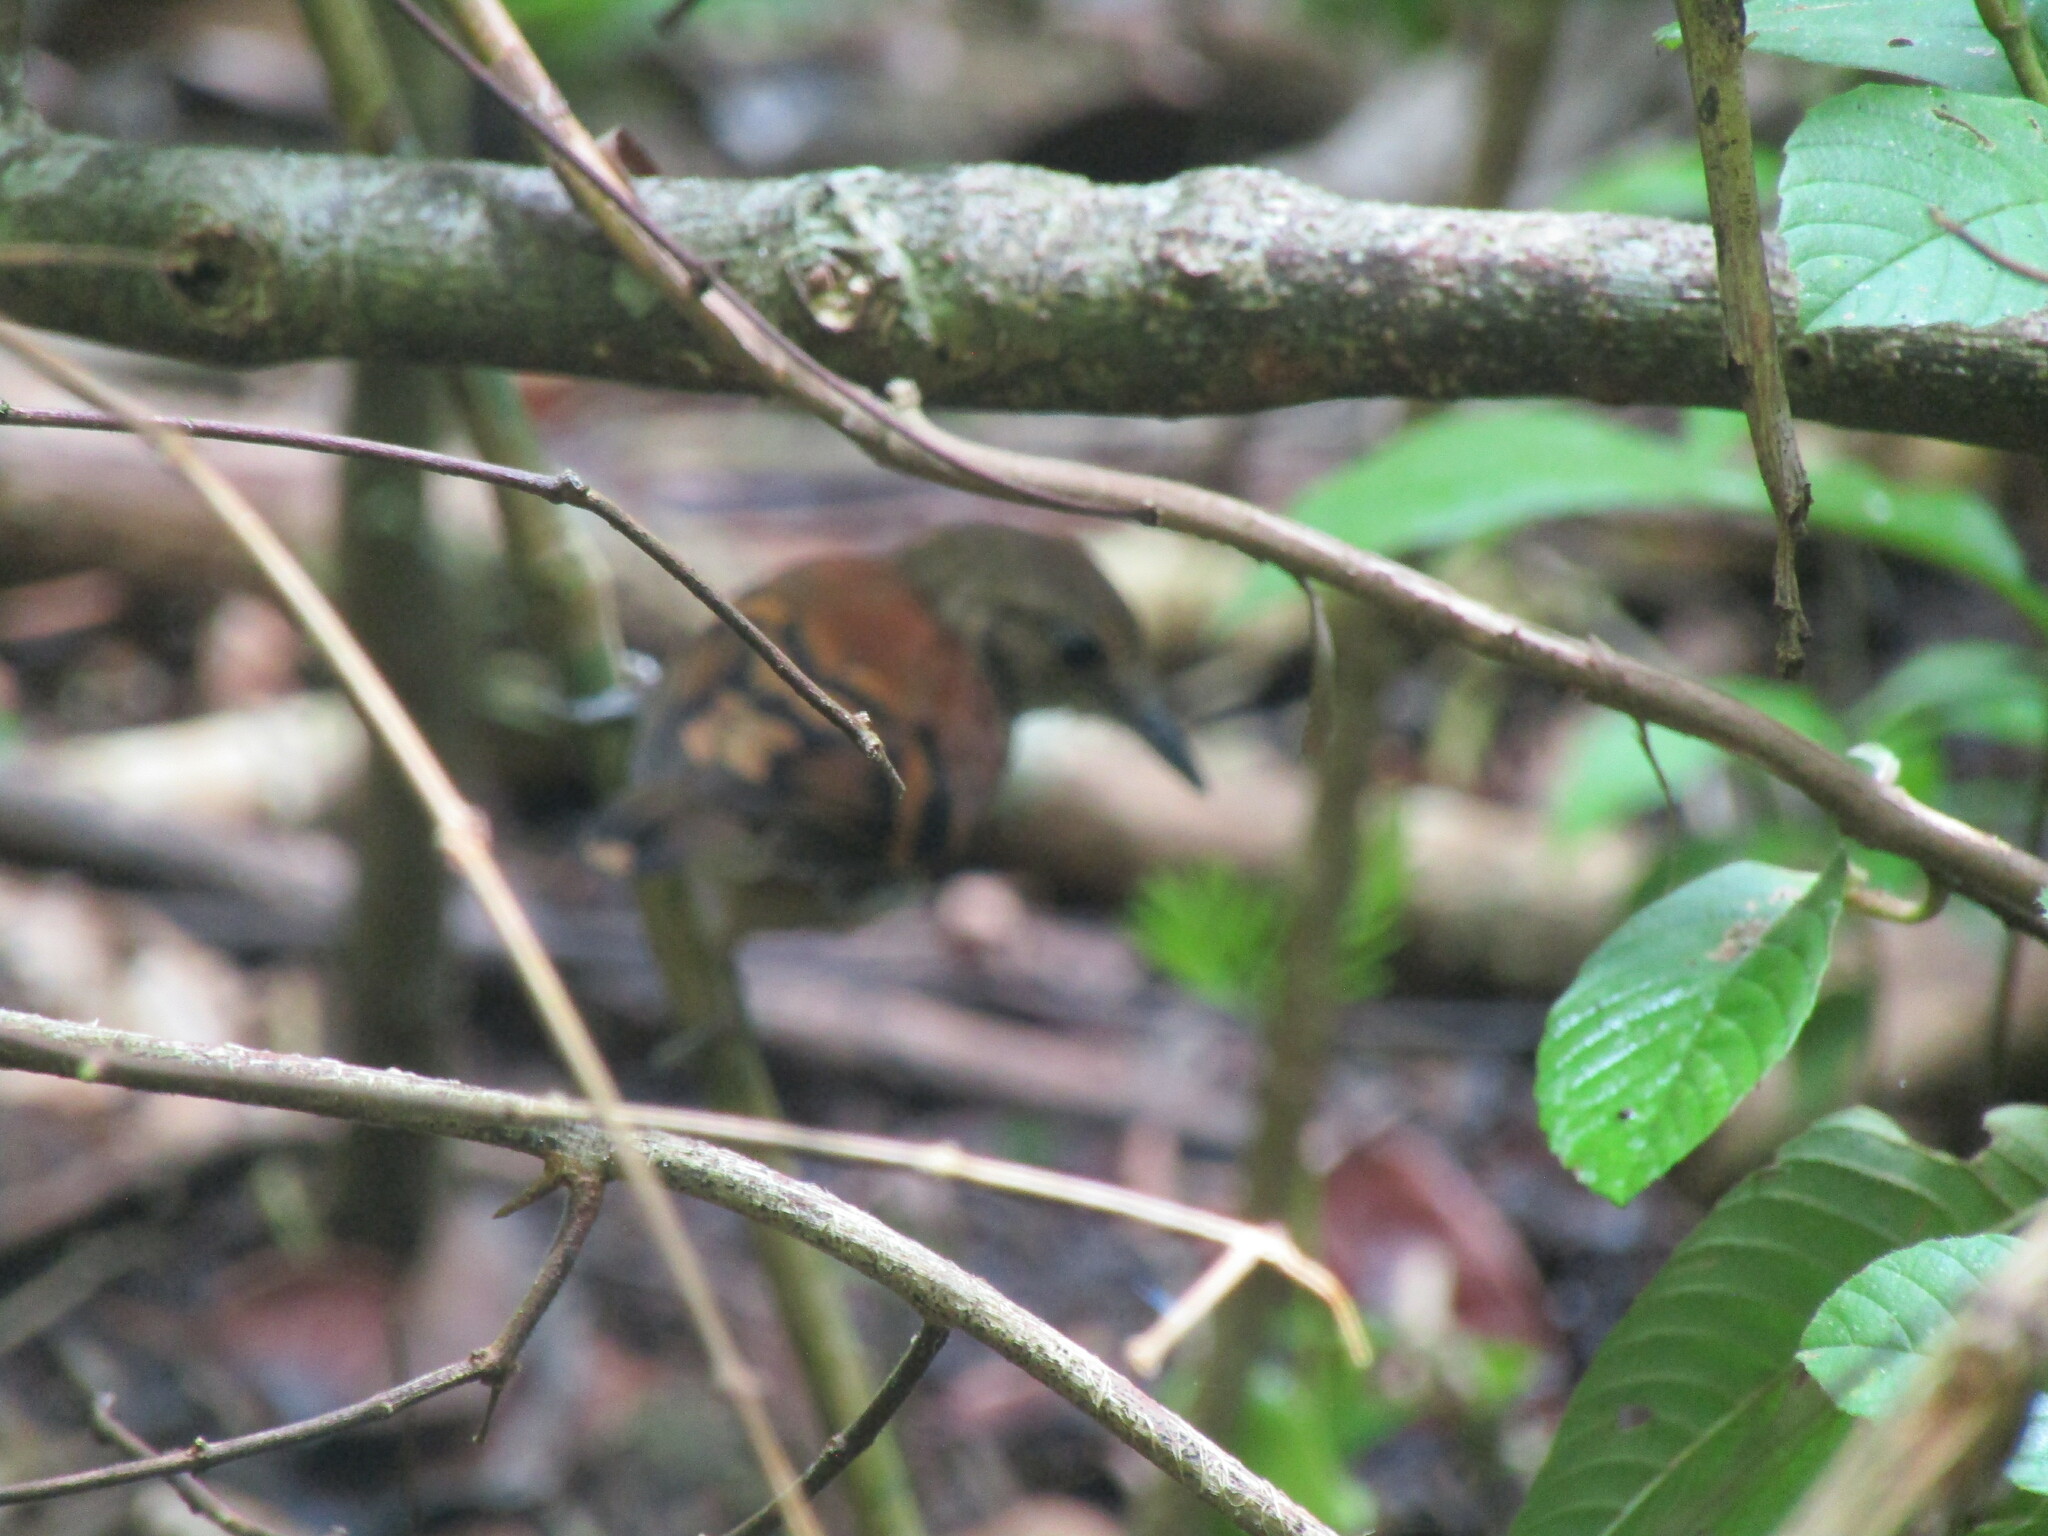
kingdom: Animalia
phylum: Chordata
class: Aves
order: Passeriformes
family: Thamnophilidae
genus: Hylophylax
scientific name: Hylophylax naevioides
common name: Spotted antbird
